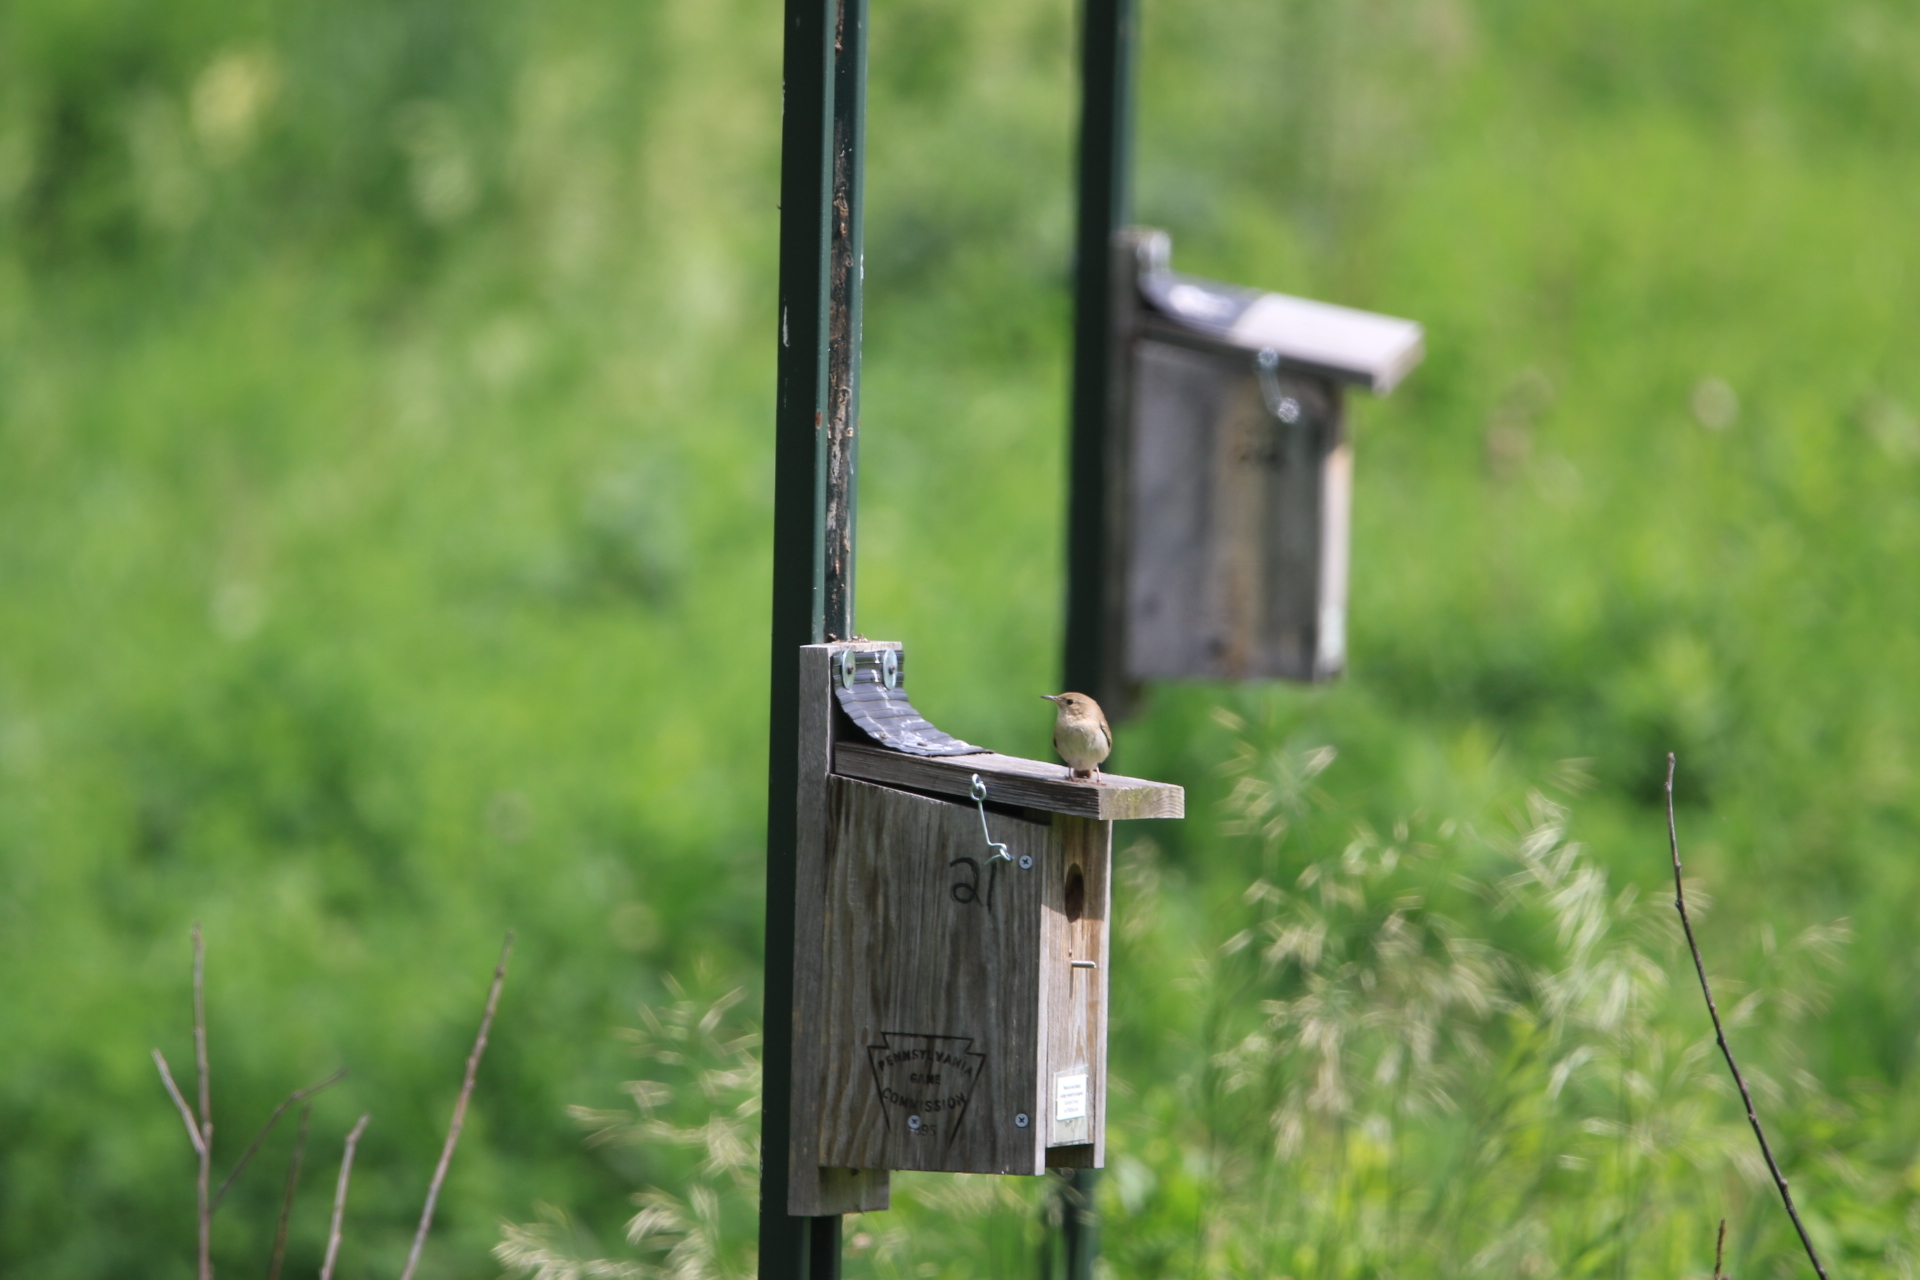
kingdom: Animalia
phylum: Chordata
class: Aves
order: Passeriformes
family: Troglodytidae
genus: Troglodytes
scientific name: Troglodytes aedon
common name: House wren
